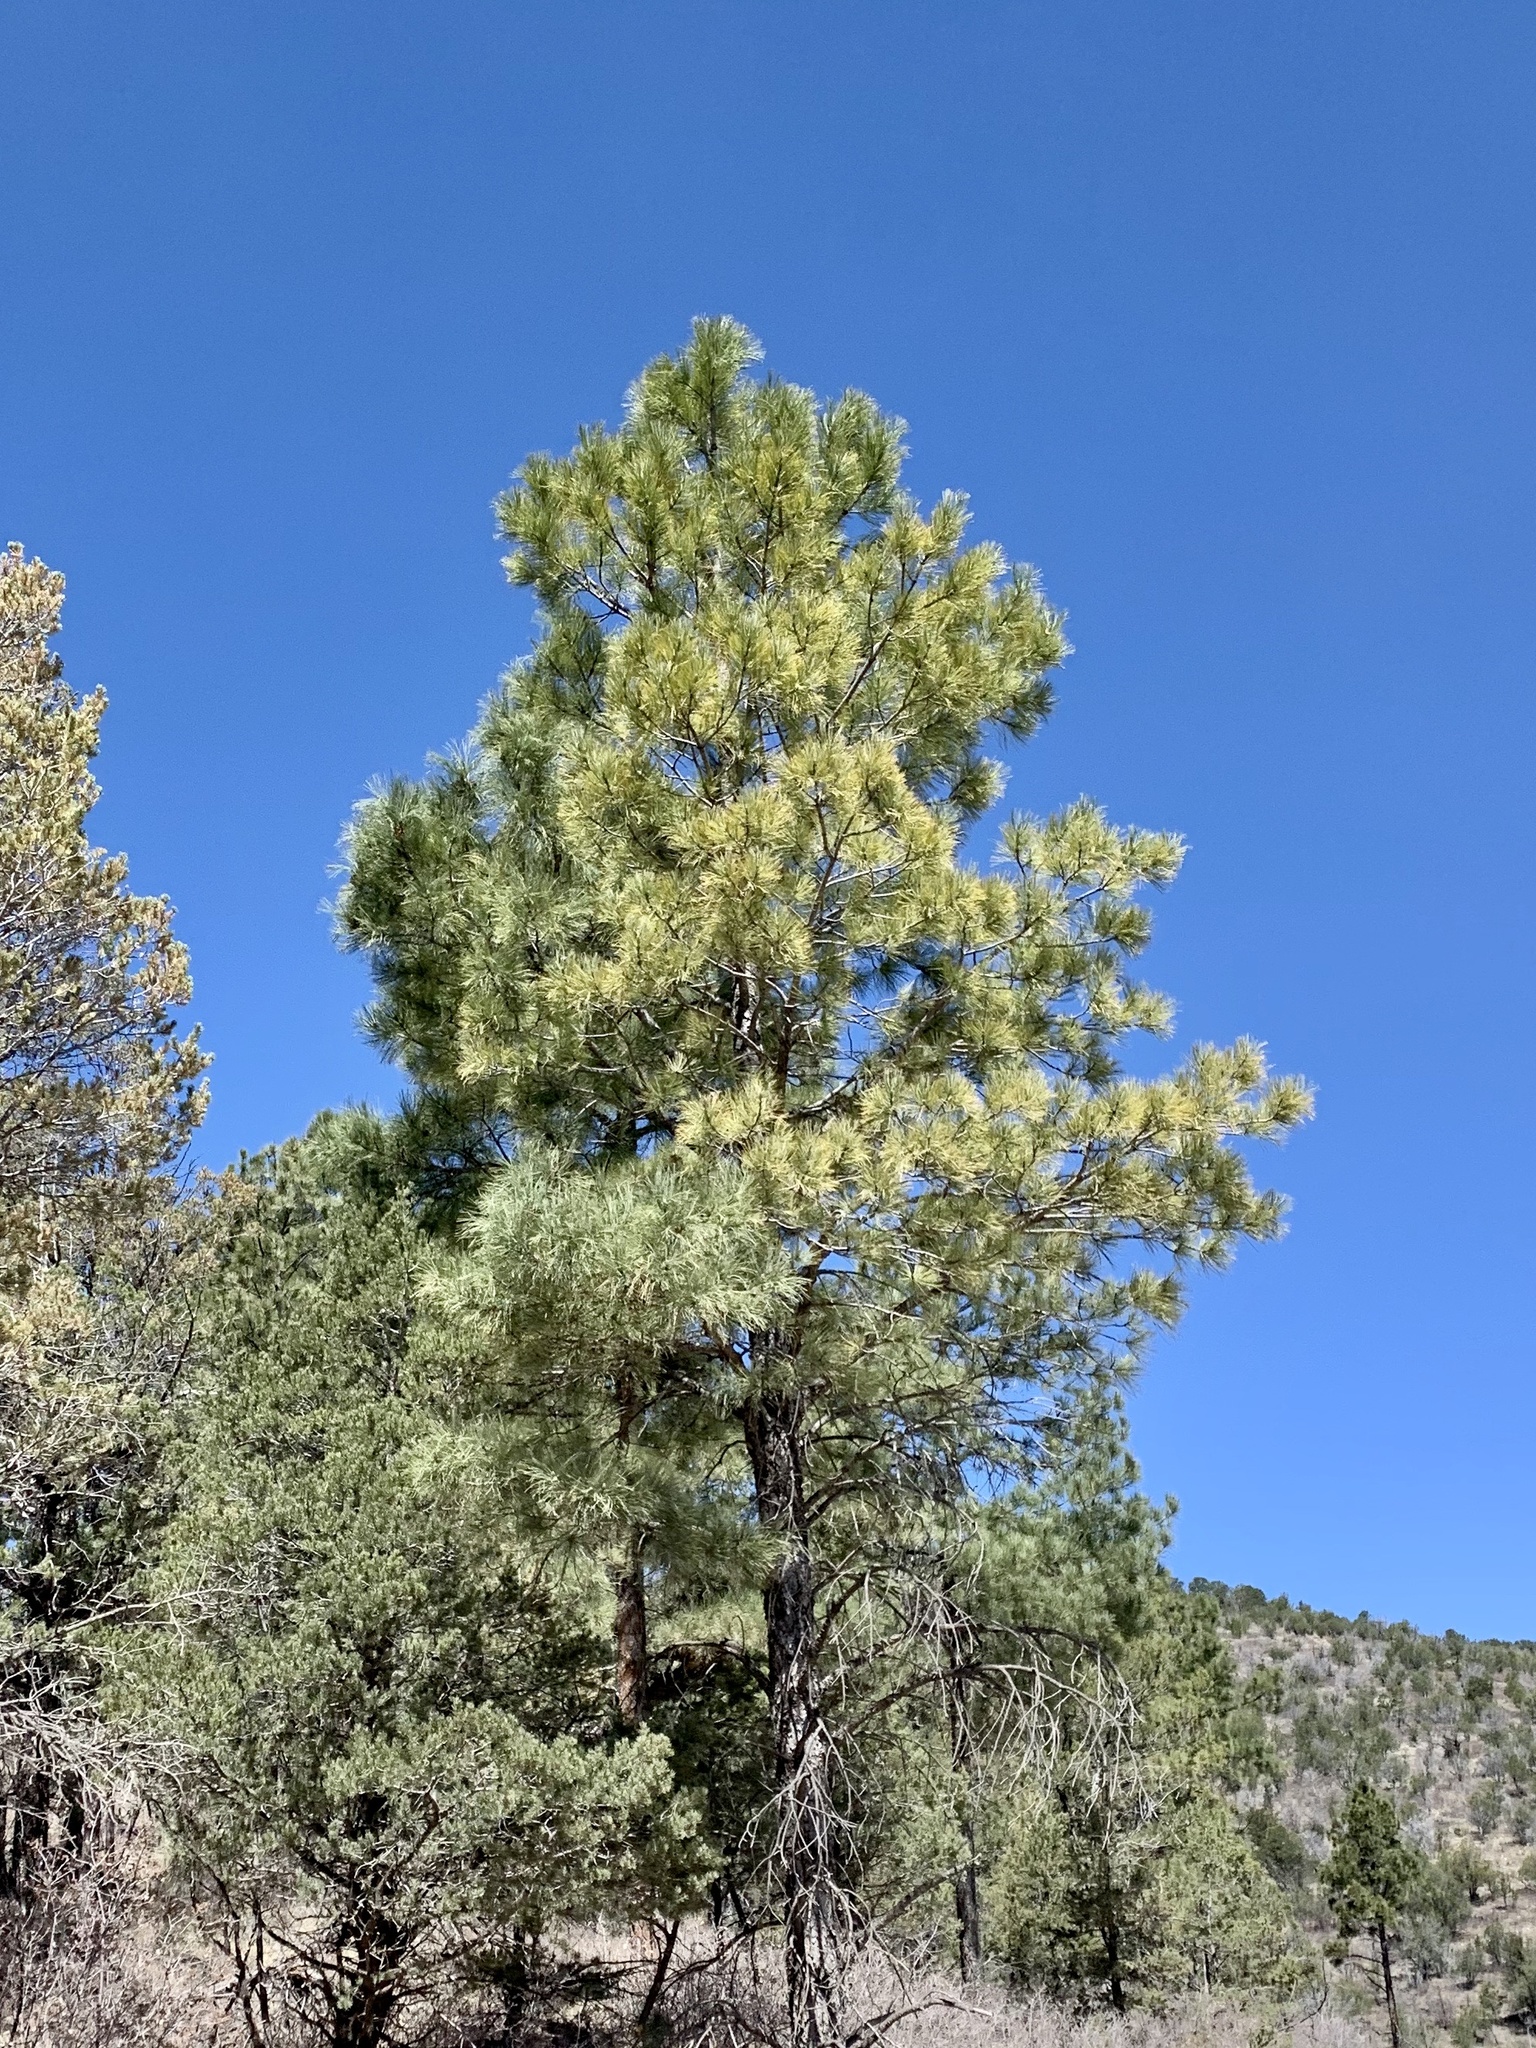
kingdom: Plantae
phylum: Tracheophyta
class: Pinopsida
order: Pinales
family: Pinaceae
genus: Pinus
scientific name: Pinus ponderosa
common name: Western yellow-pine
